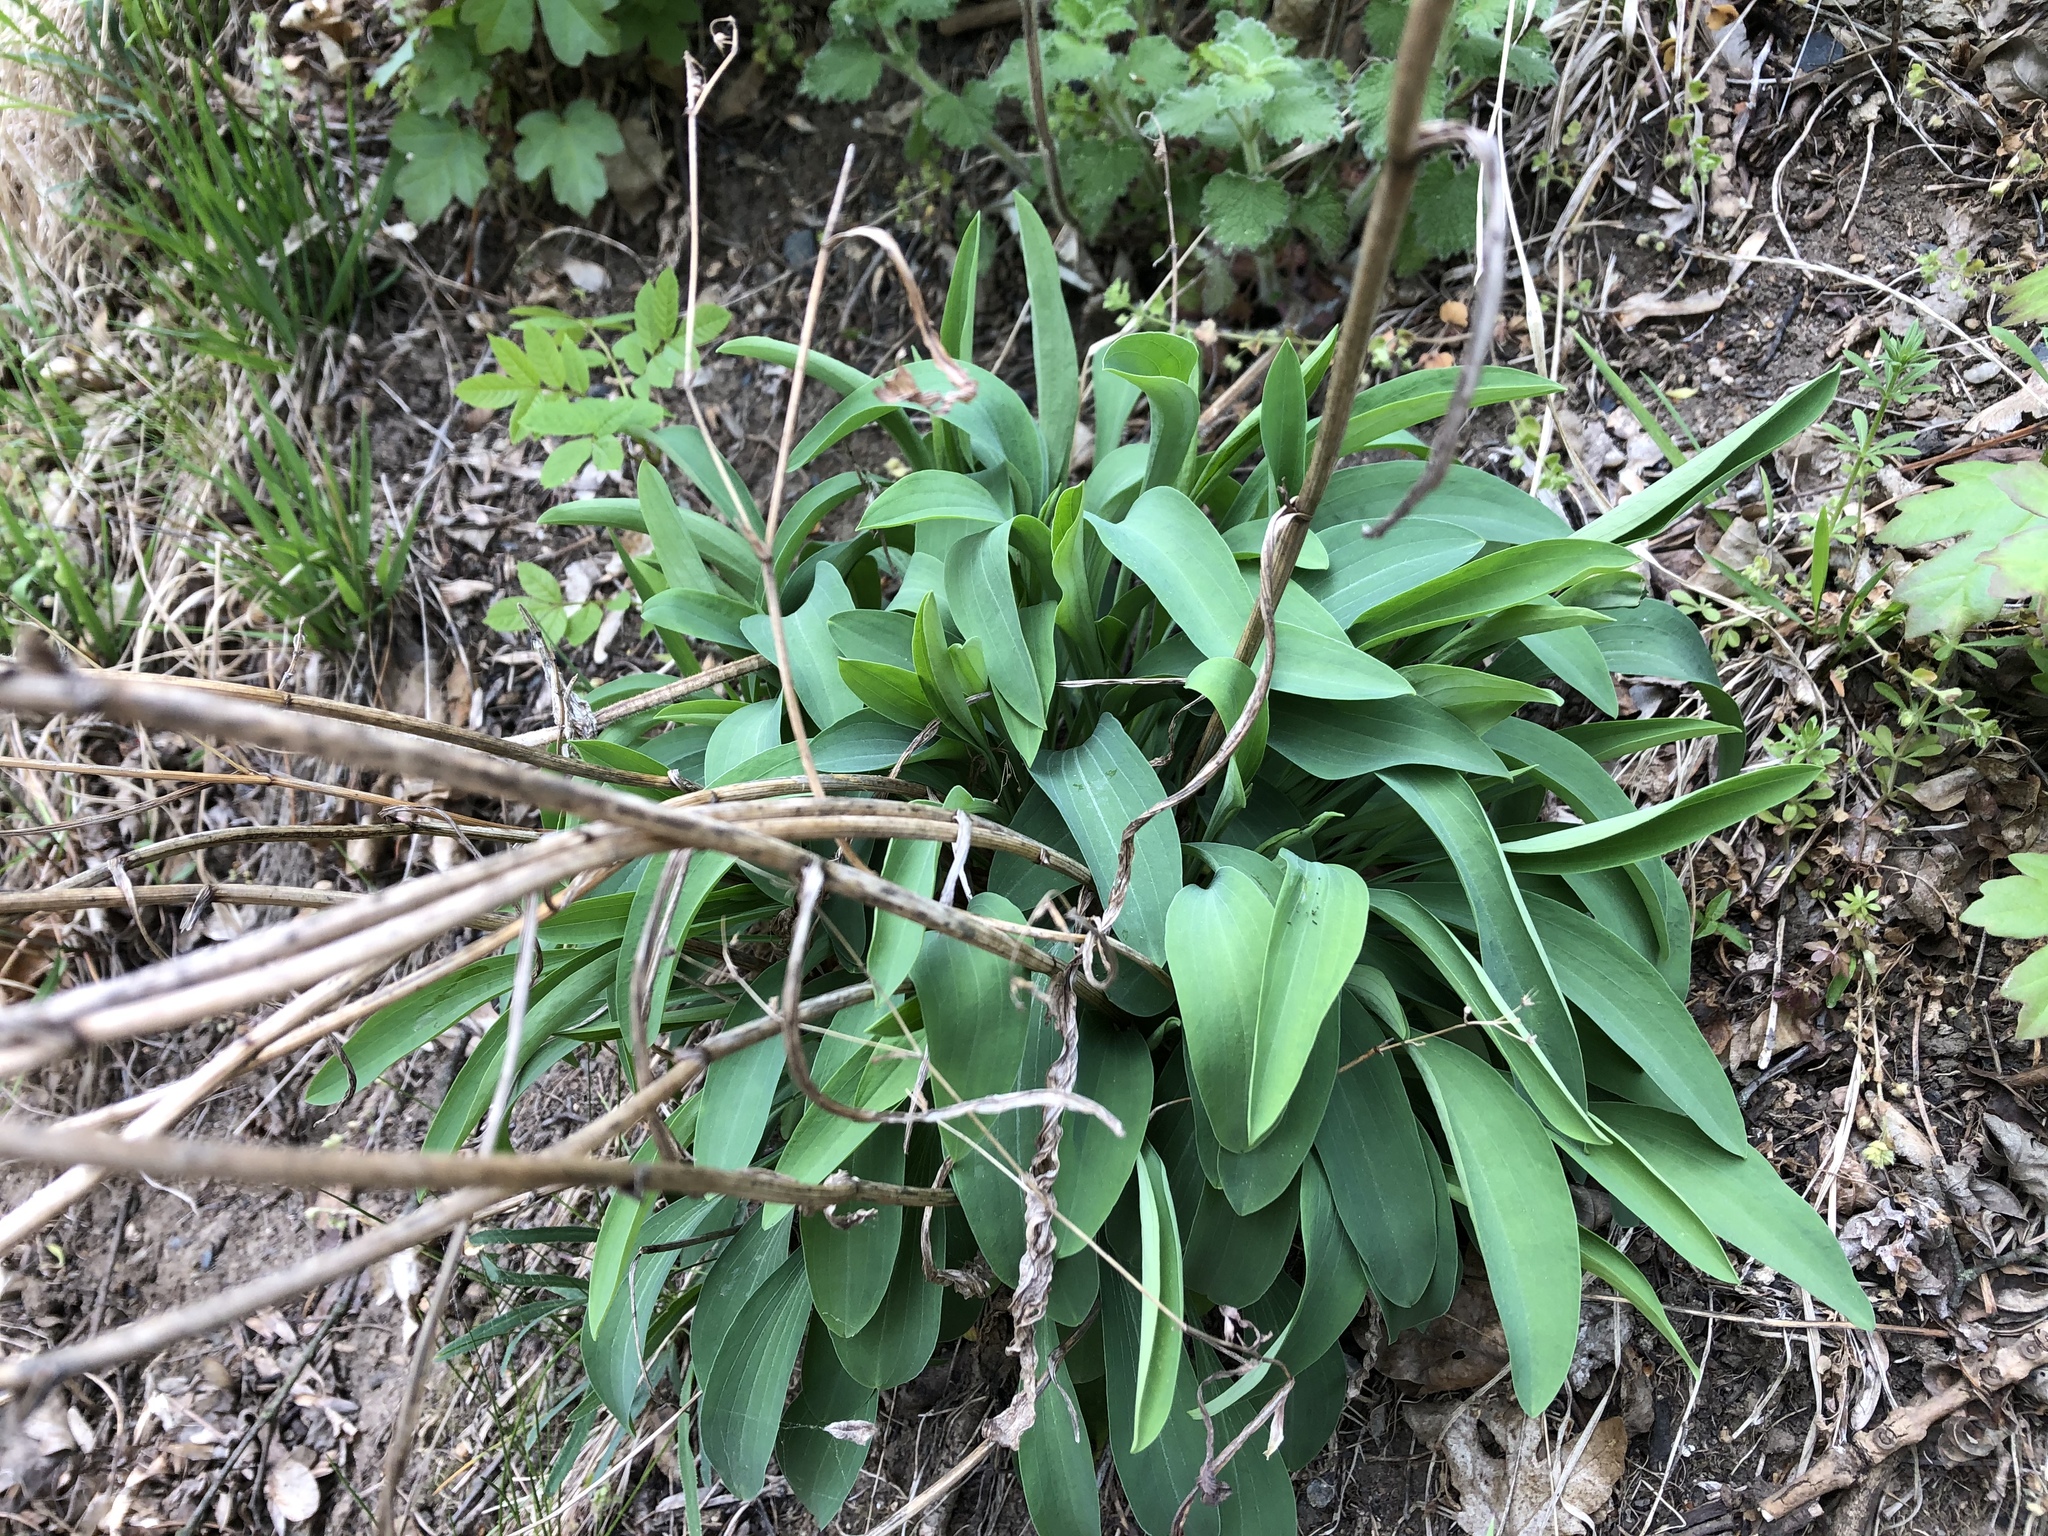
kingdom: Plantae
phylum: Tracheophyta
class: Magnoliopsida
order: Apiales
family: Apiaceae
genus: Bupleurum
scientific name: Bupleurum falcatum
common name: Sickle-leaved hare's-ear
